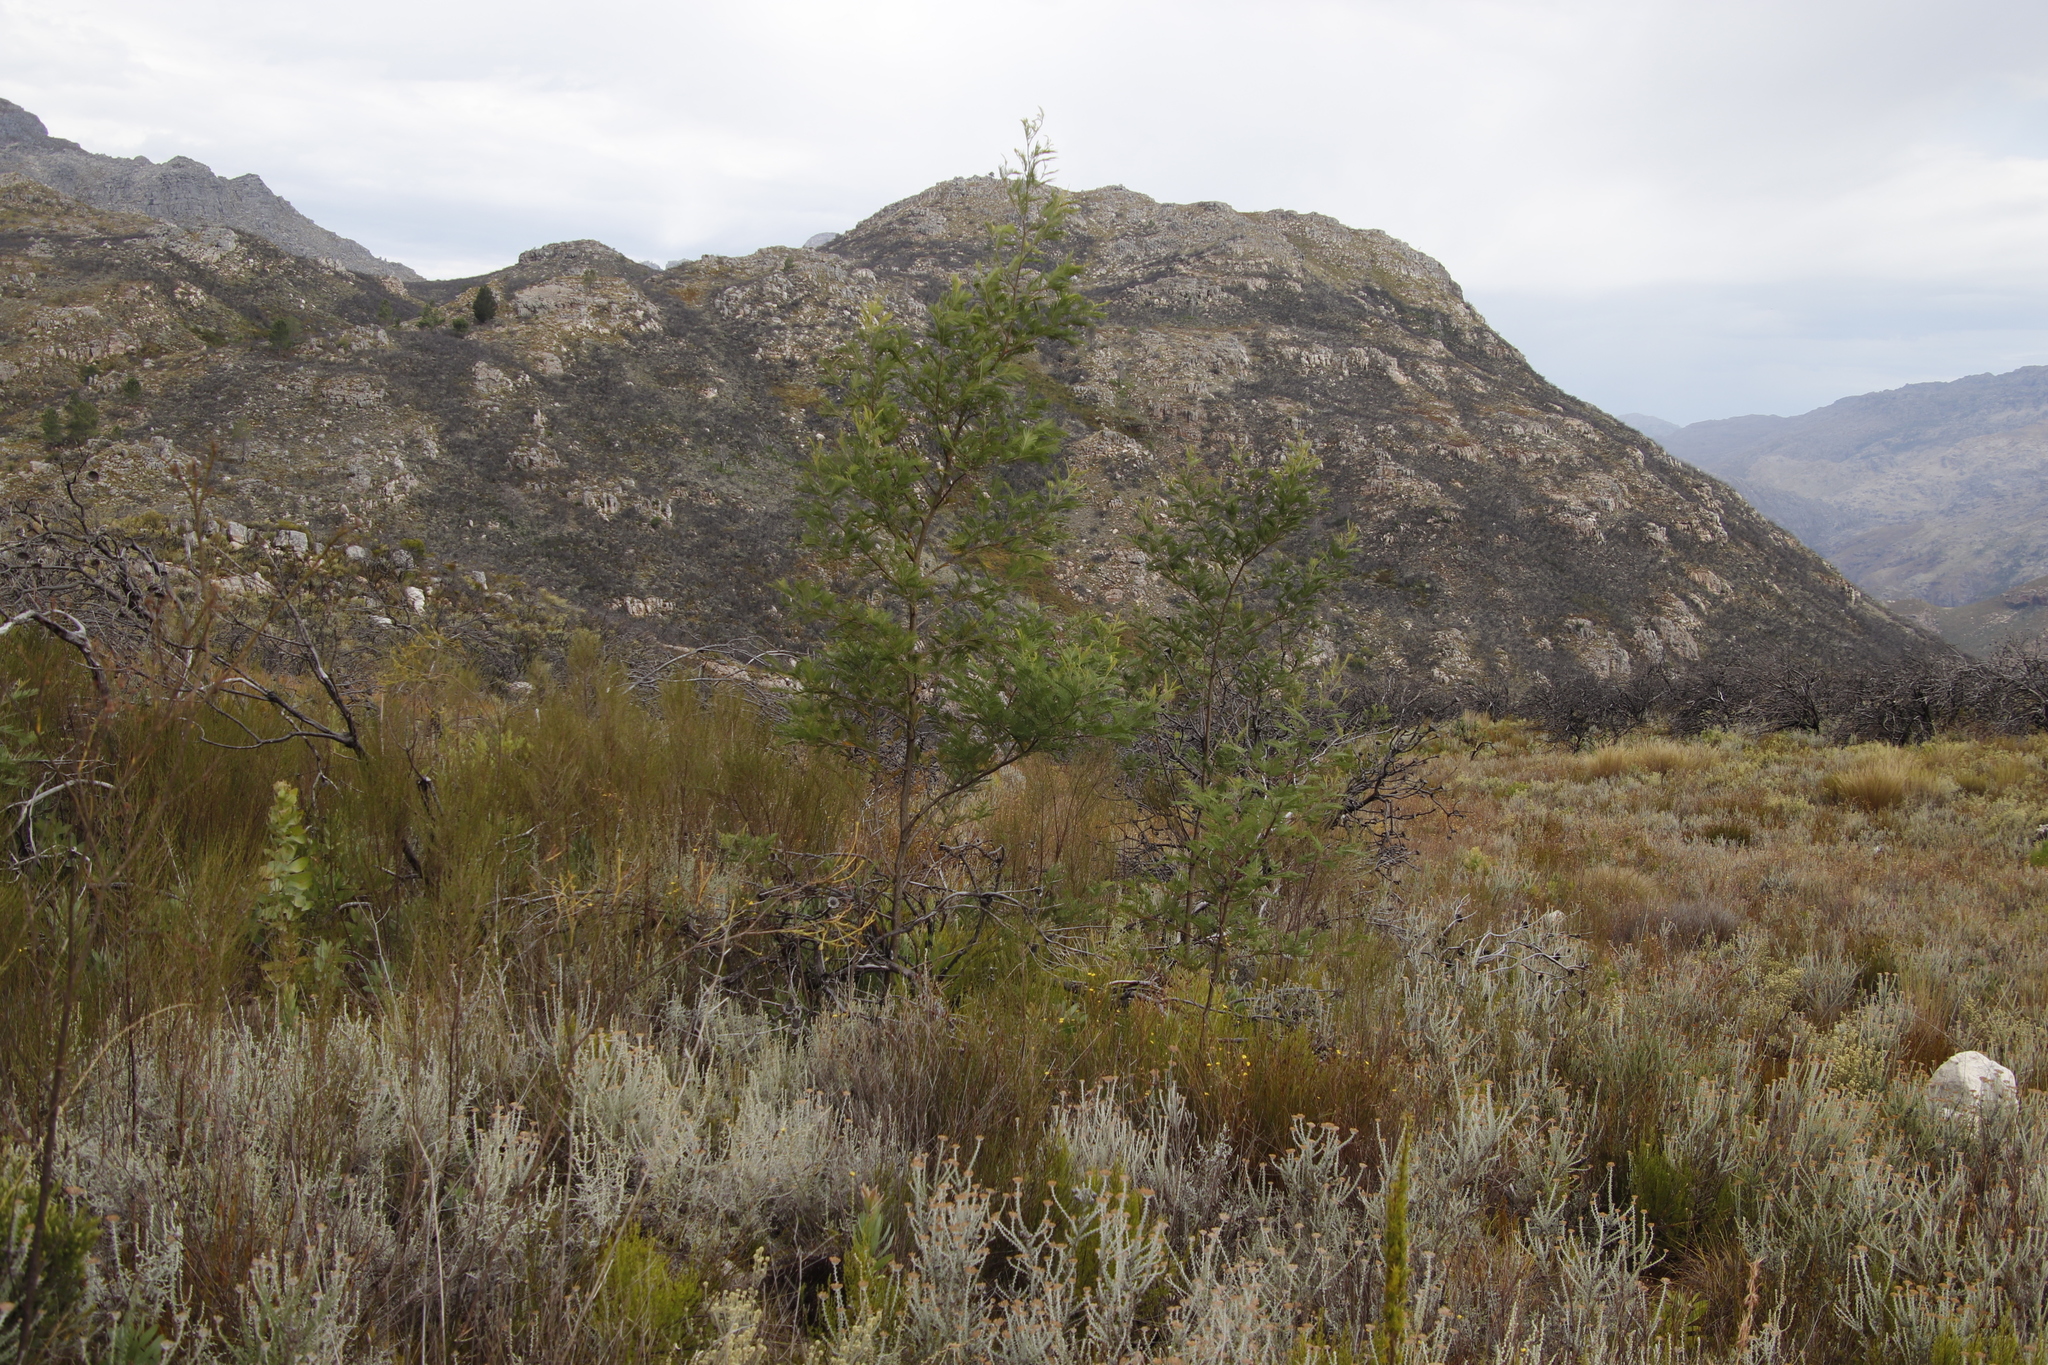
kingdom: Plantae
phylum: Tracheophyta
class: Magnoliopsida
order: Fabales
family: Fabaceae
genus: Acacia
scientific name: Acacia mearnsii
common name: Black wattle
